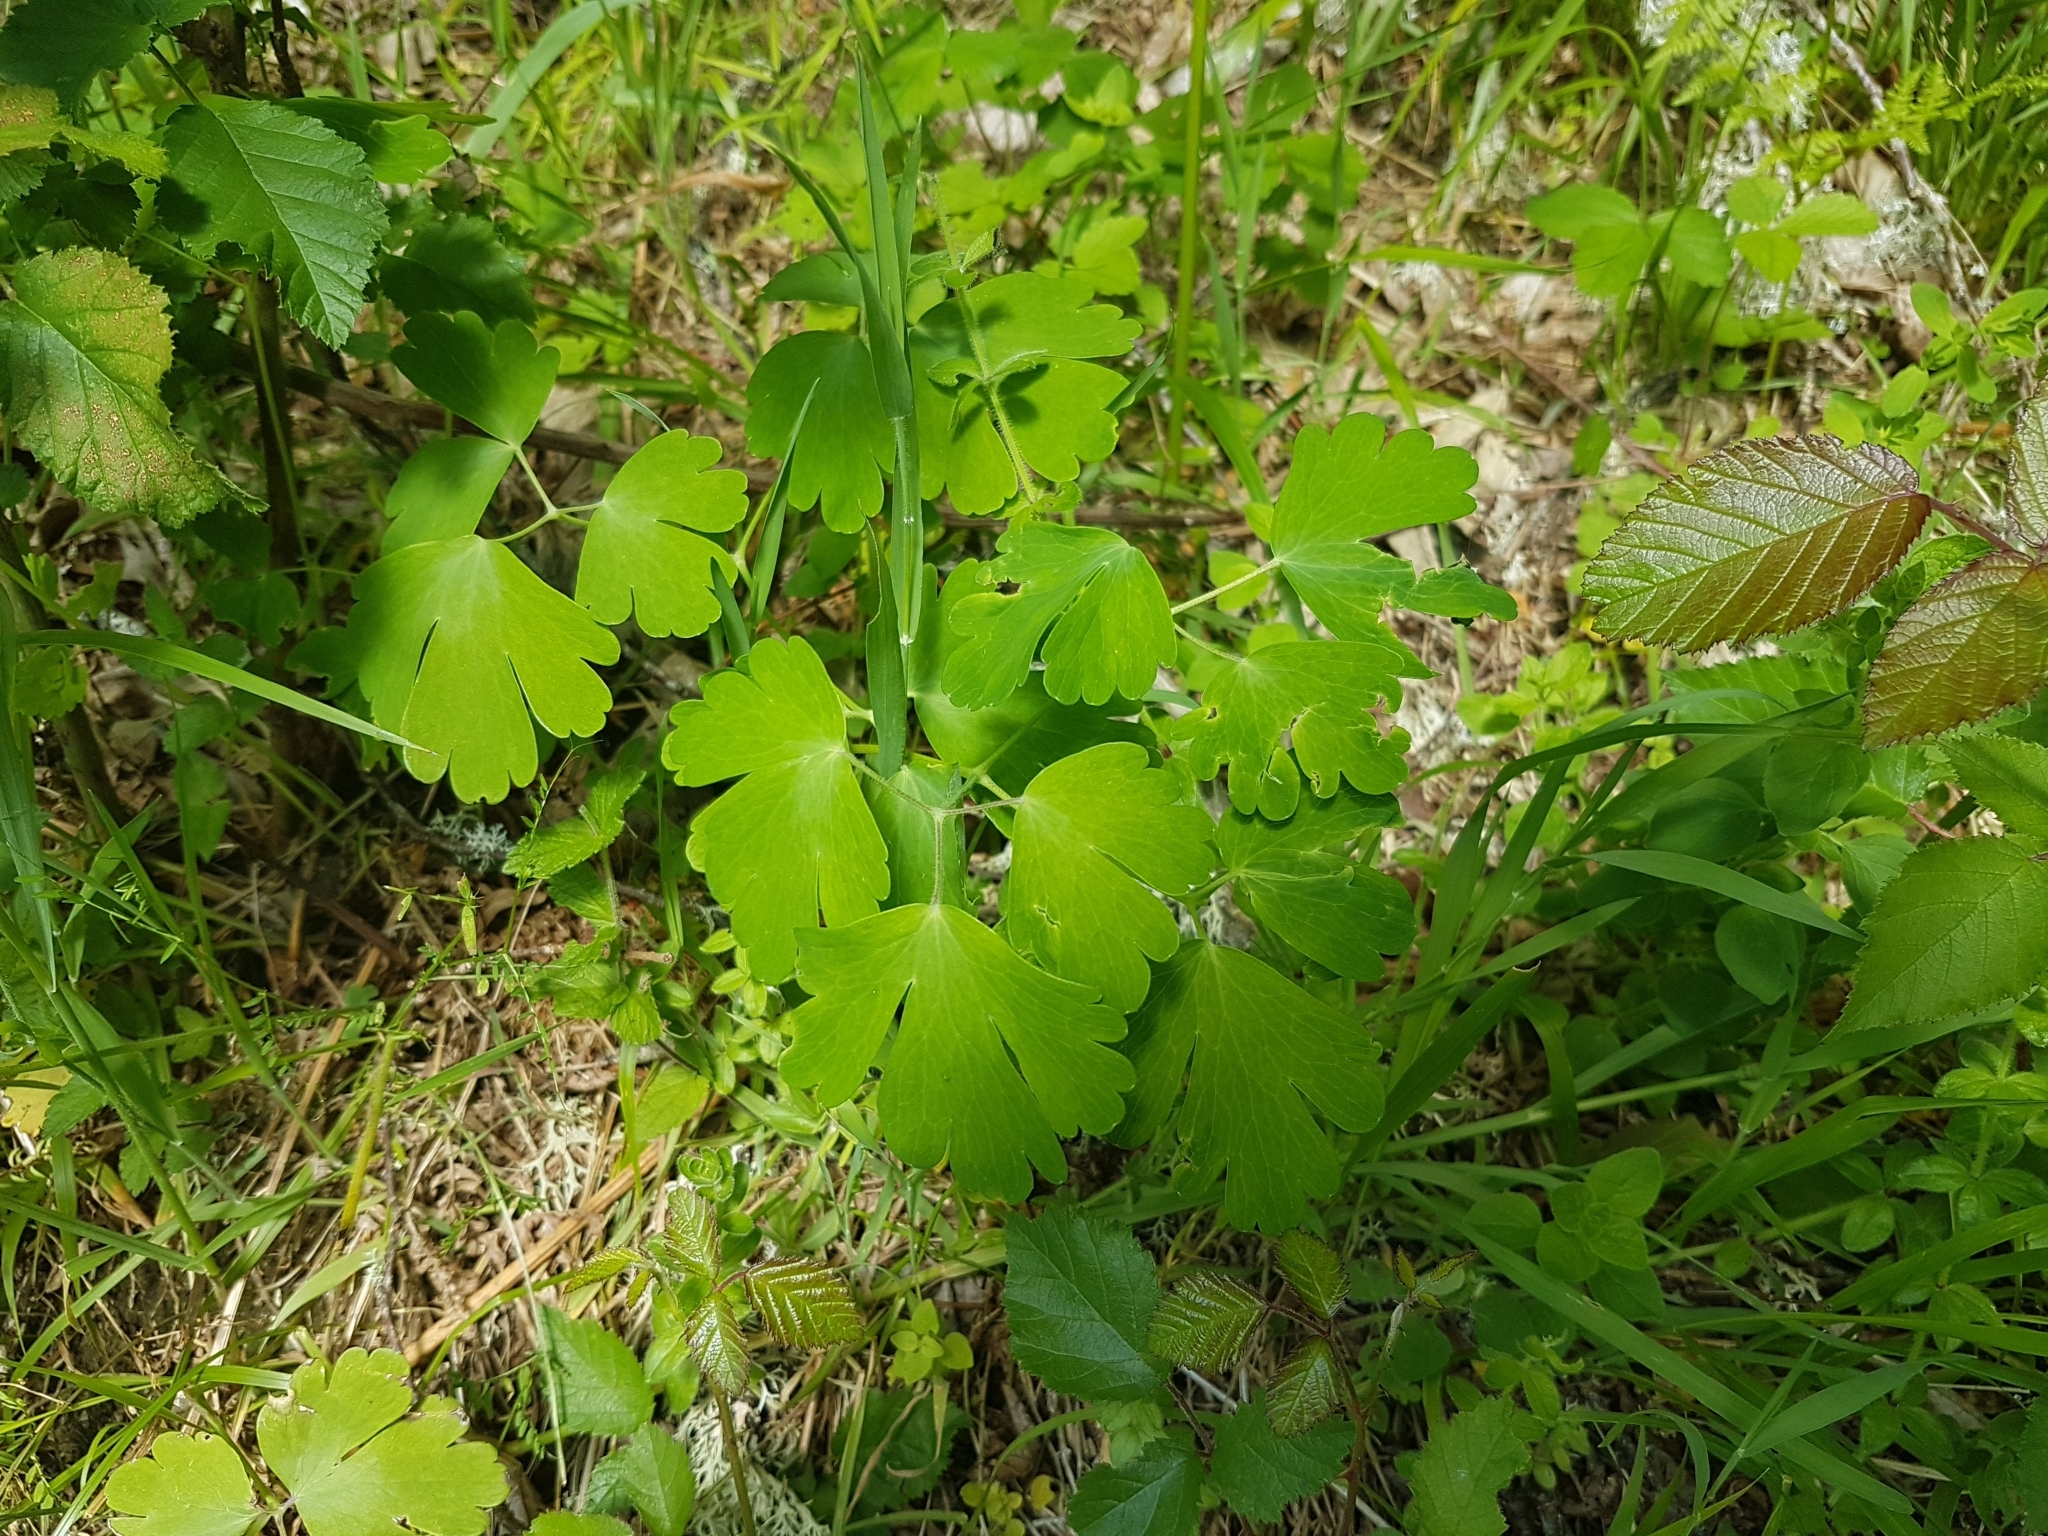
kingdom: Plantae
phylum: Tracheophyta
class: Magnoliopsida
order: Ranunculales
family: Ranunculaceae
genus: Aquilegia
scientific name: Aquilegia vulgaris
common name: Columbine
